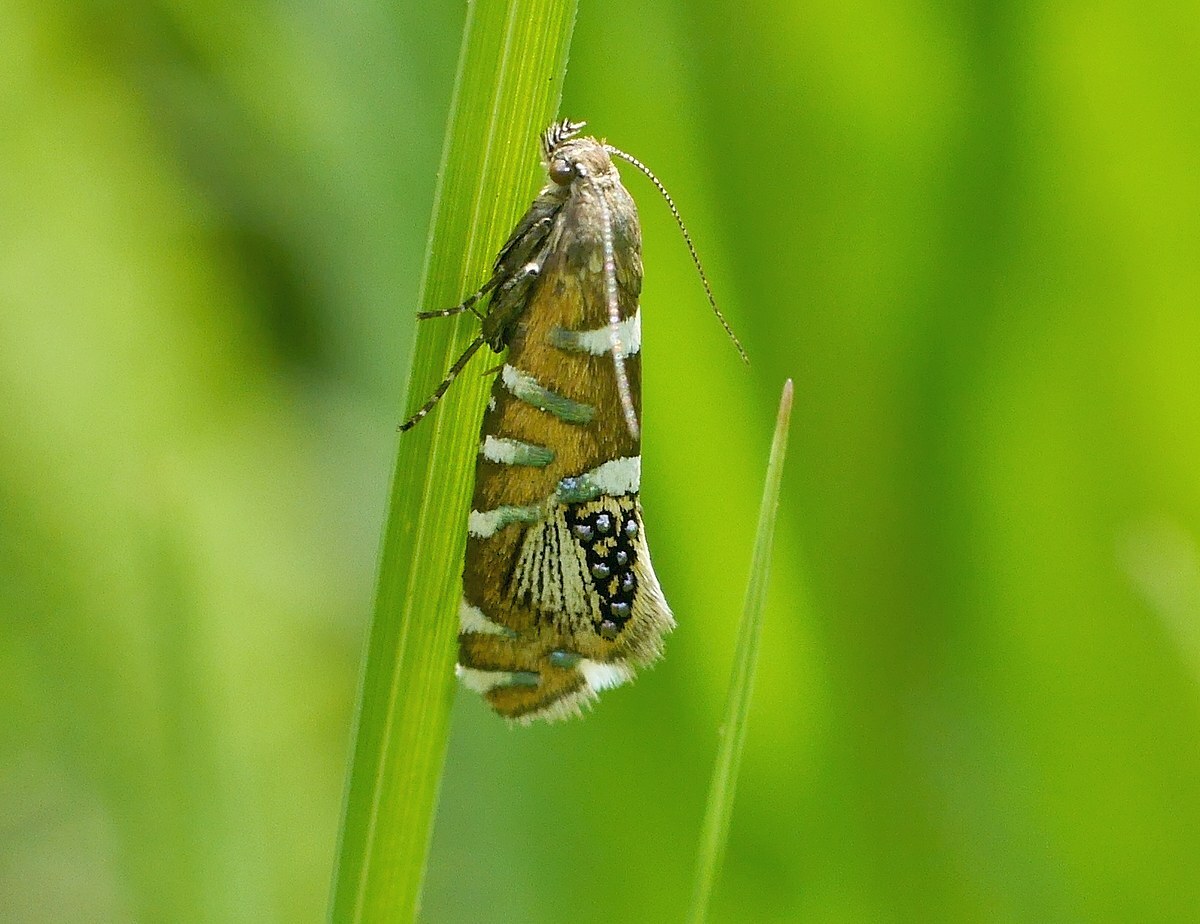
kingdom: Animalia
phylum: Arthropoda
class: Insecta
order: Lepidoptera
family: Glyphipterigidae
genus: Glyphipterix
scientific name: Glyphipterix loricatella
